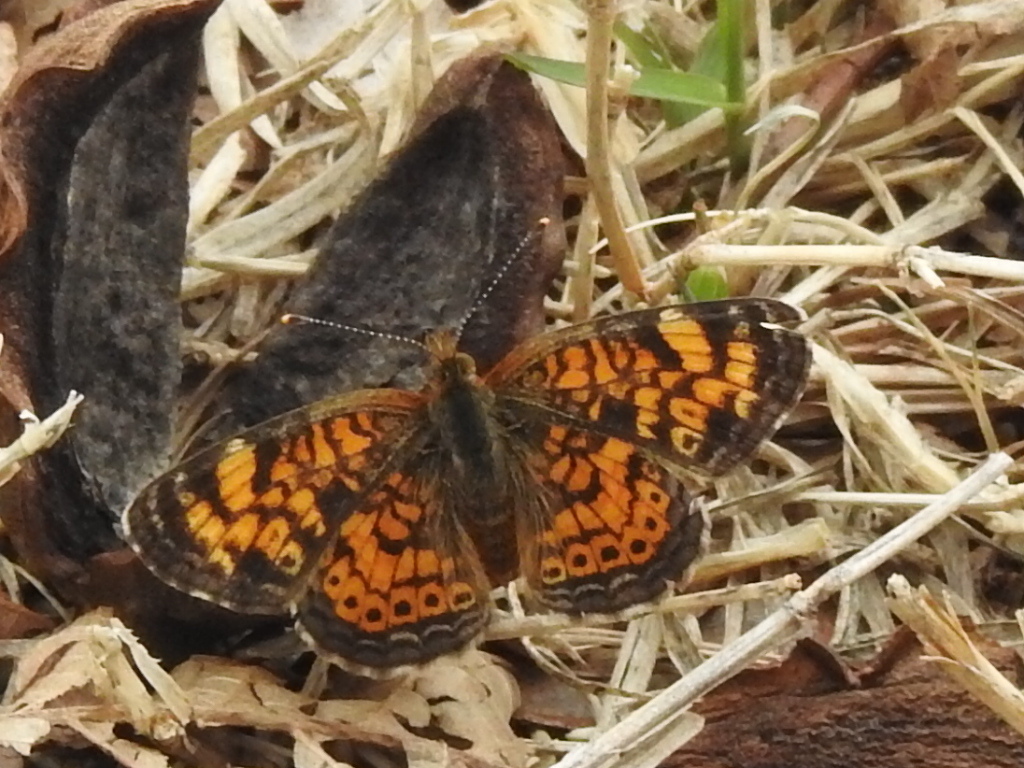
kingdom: Animalia
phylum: Arthropoda
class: Insecta
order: Lepidoptera
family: Nymphalidae
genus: Phyciodes
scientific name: Phyciodes tharos
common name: Pearl crescent
